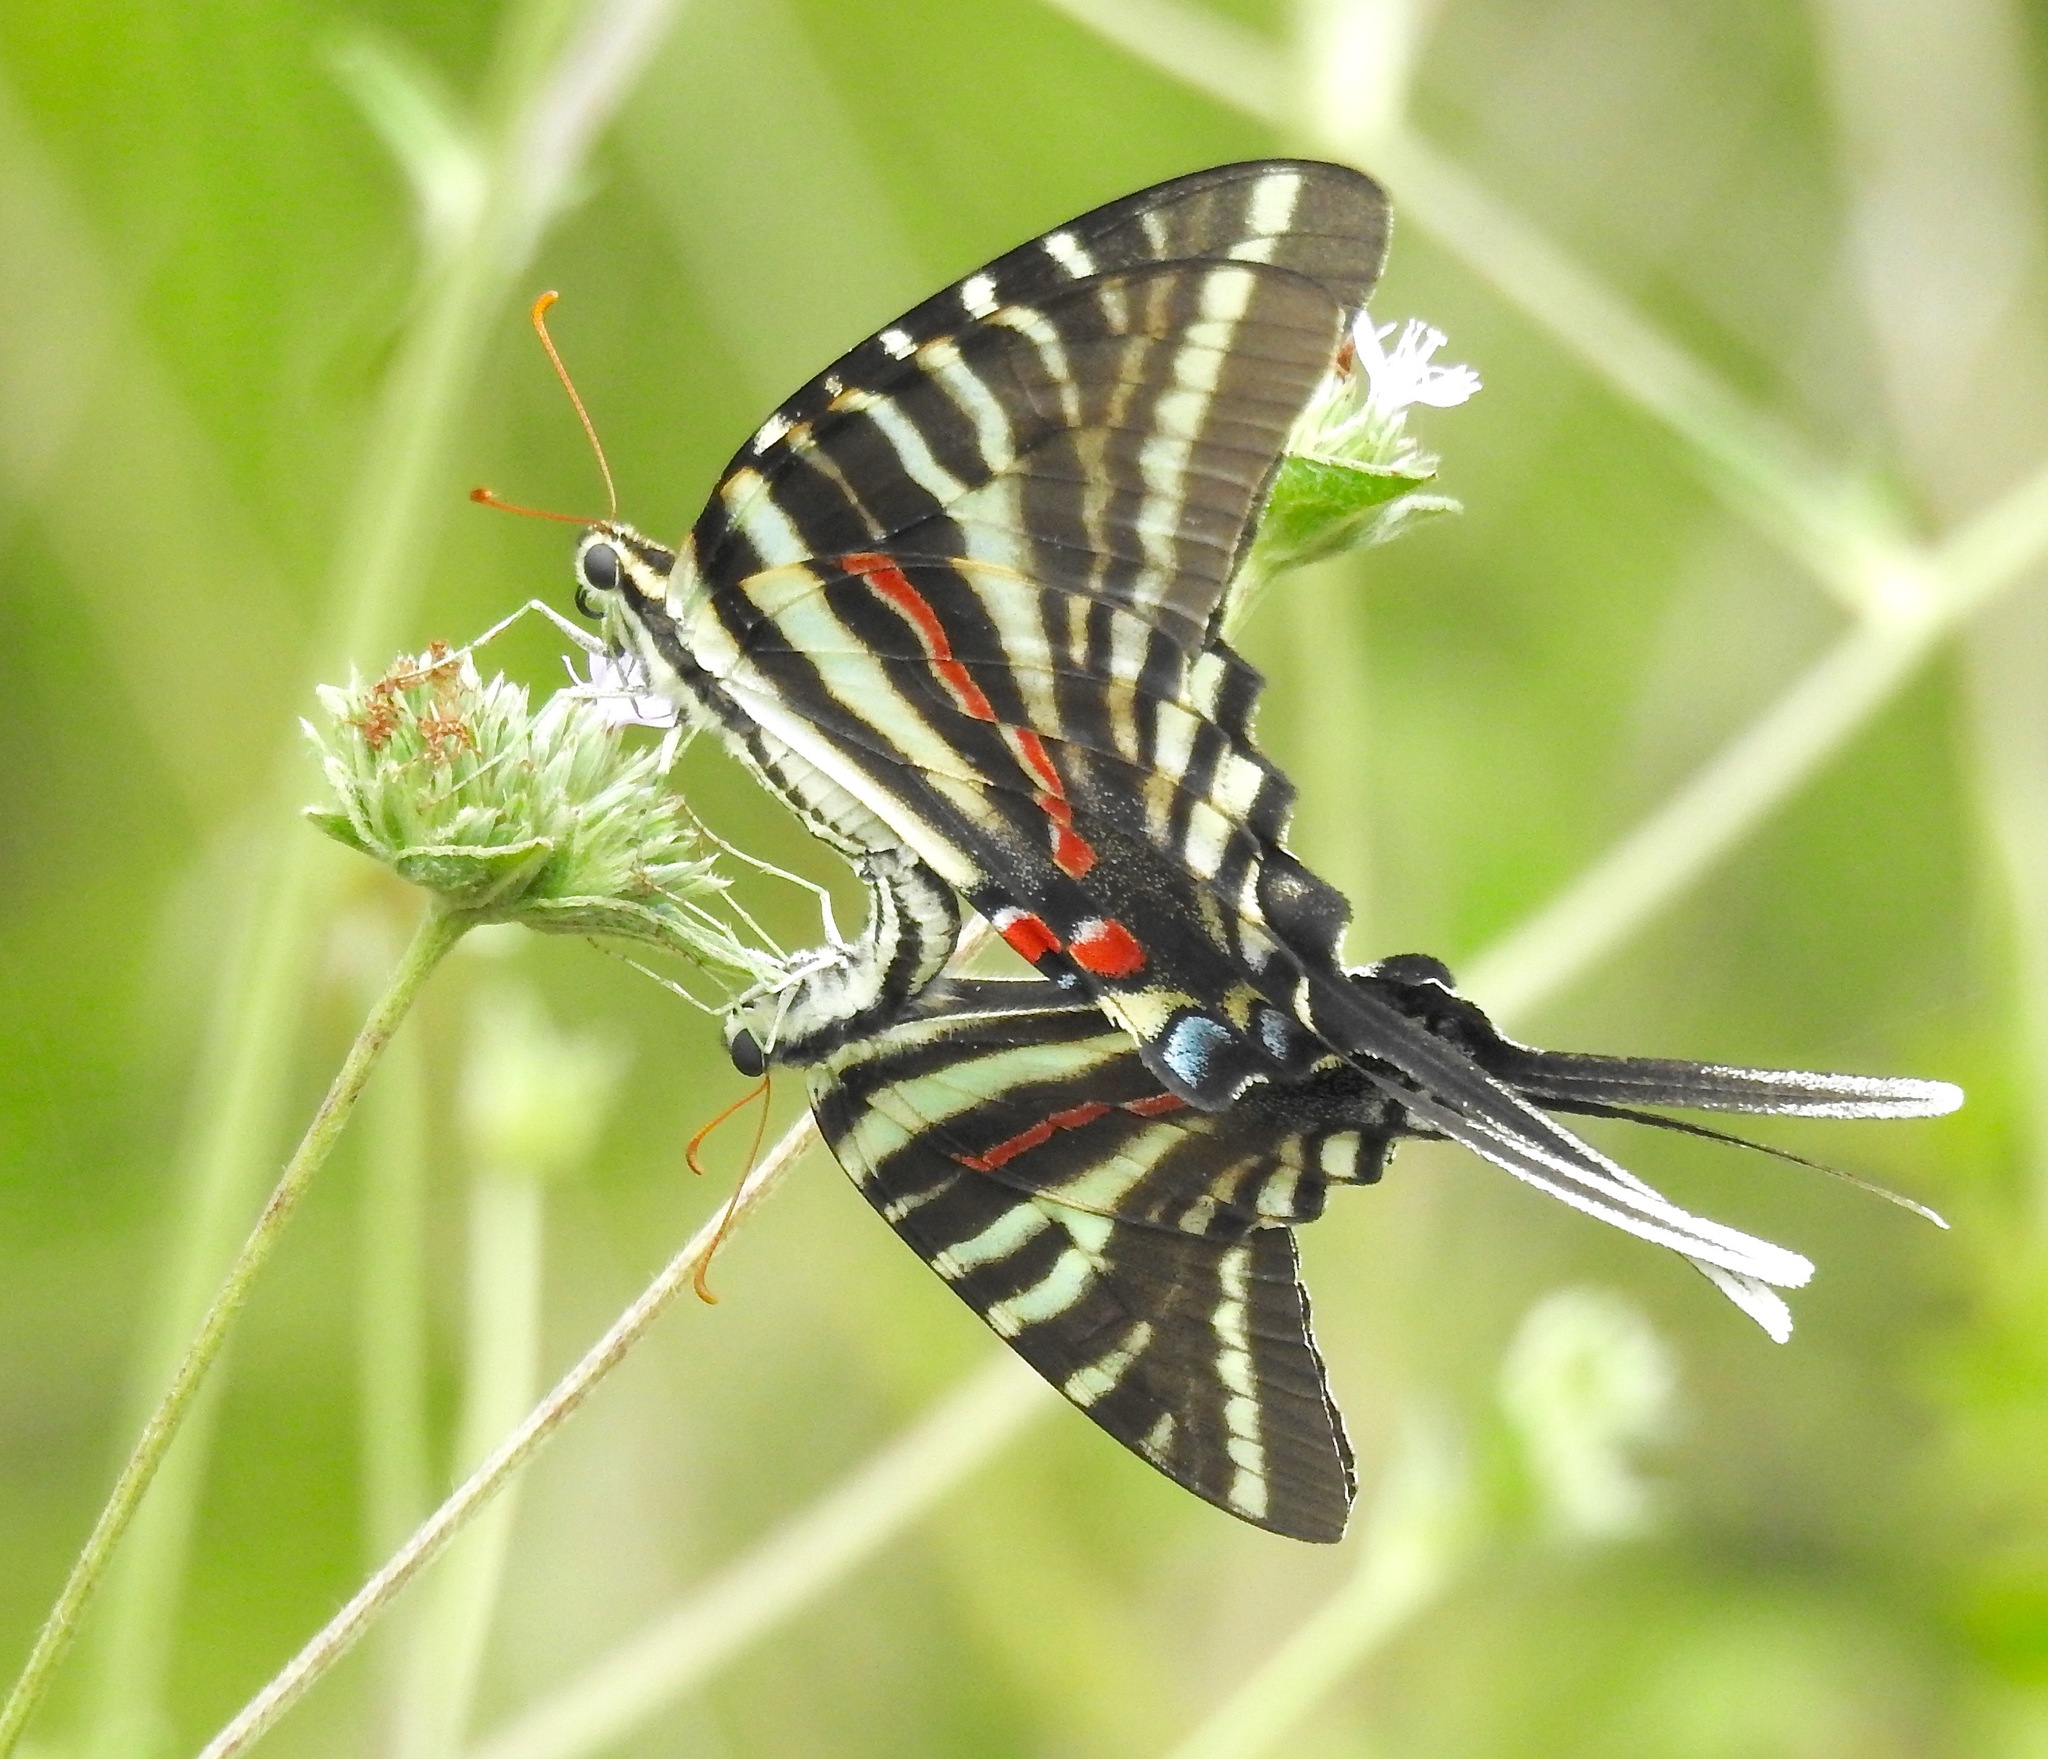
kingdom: Animalia
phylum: Arthropoda
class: Insecta
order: Lepidoptera
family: Papilionidae
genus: Protographium
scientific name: Protographium marcellus
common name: Zebra swallowtail
